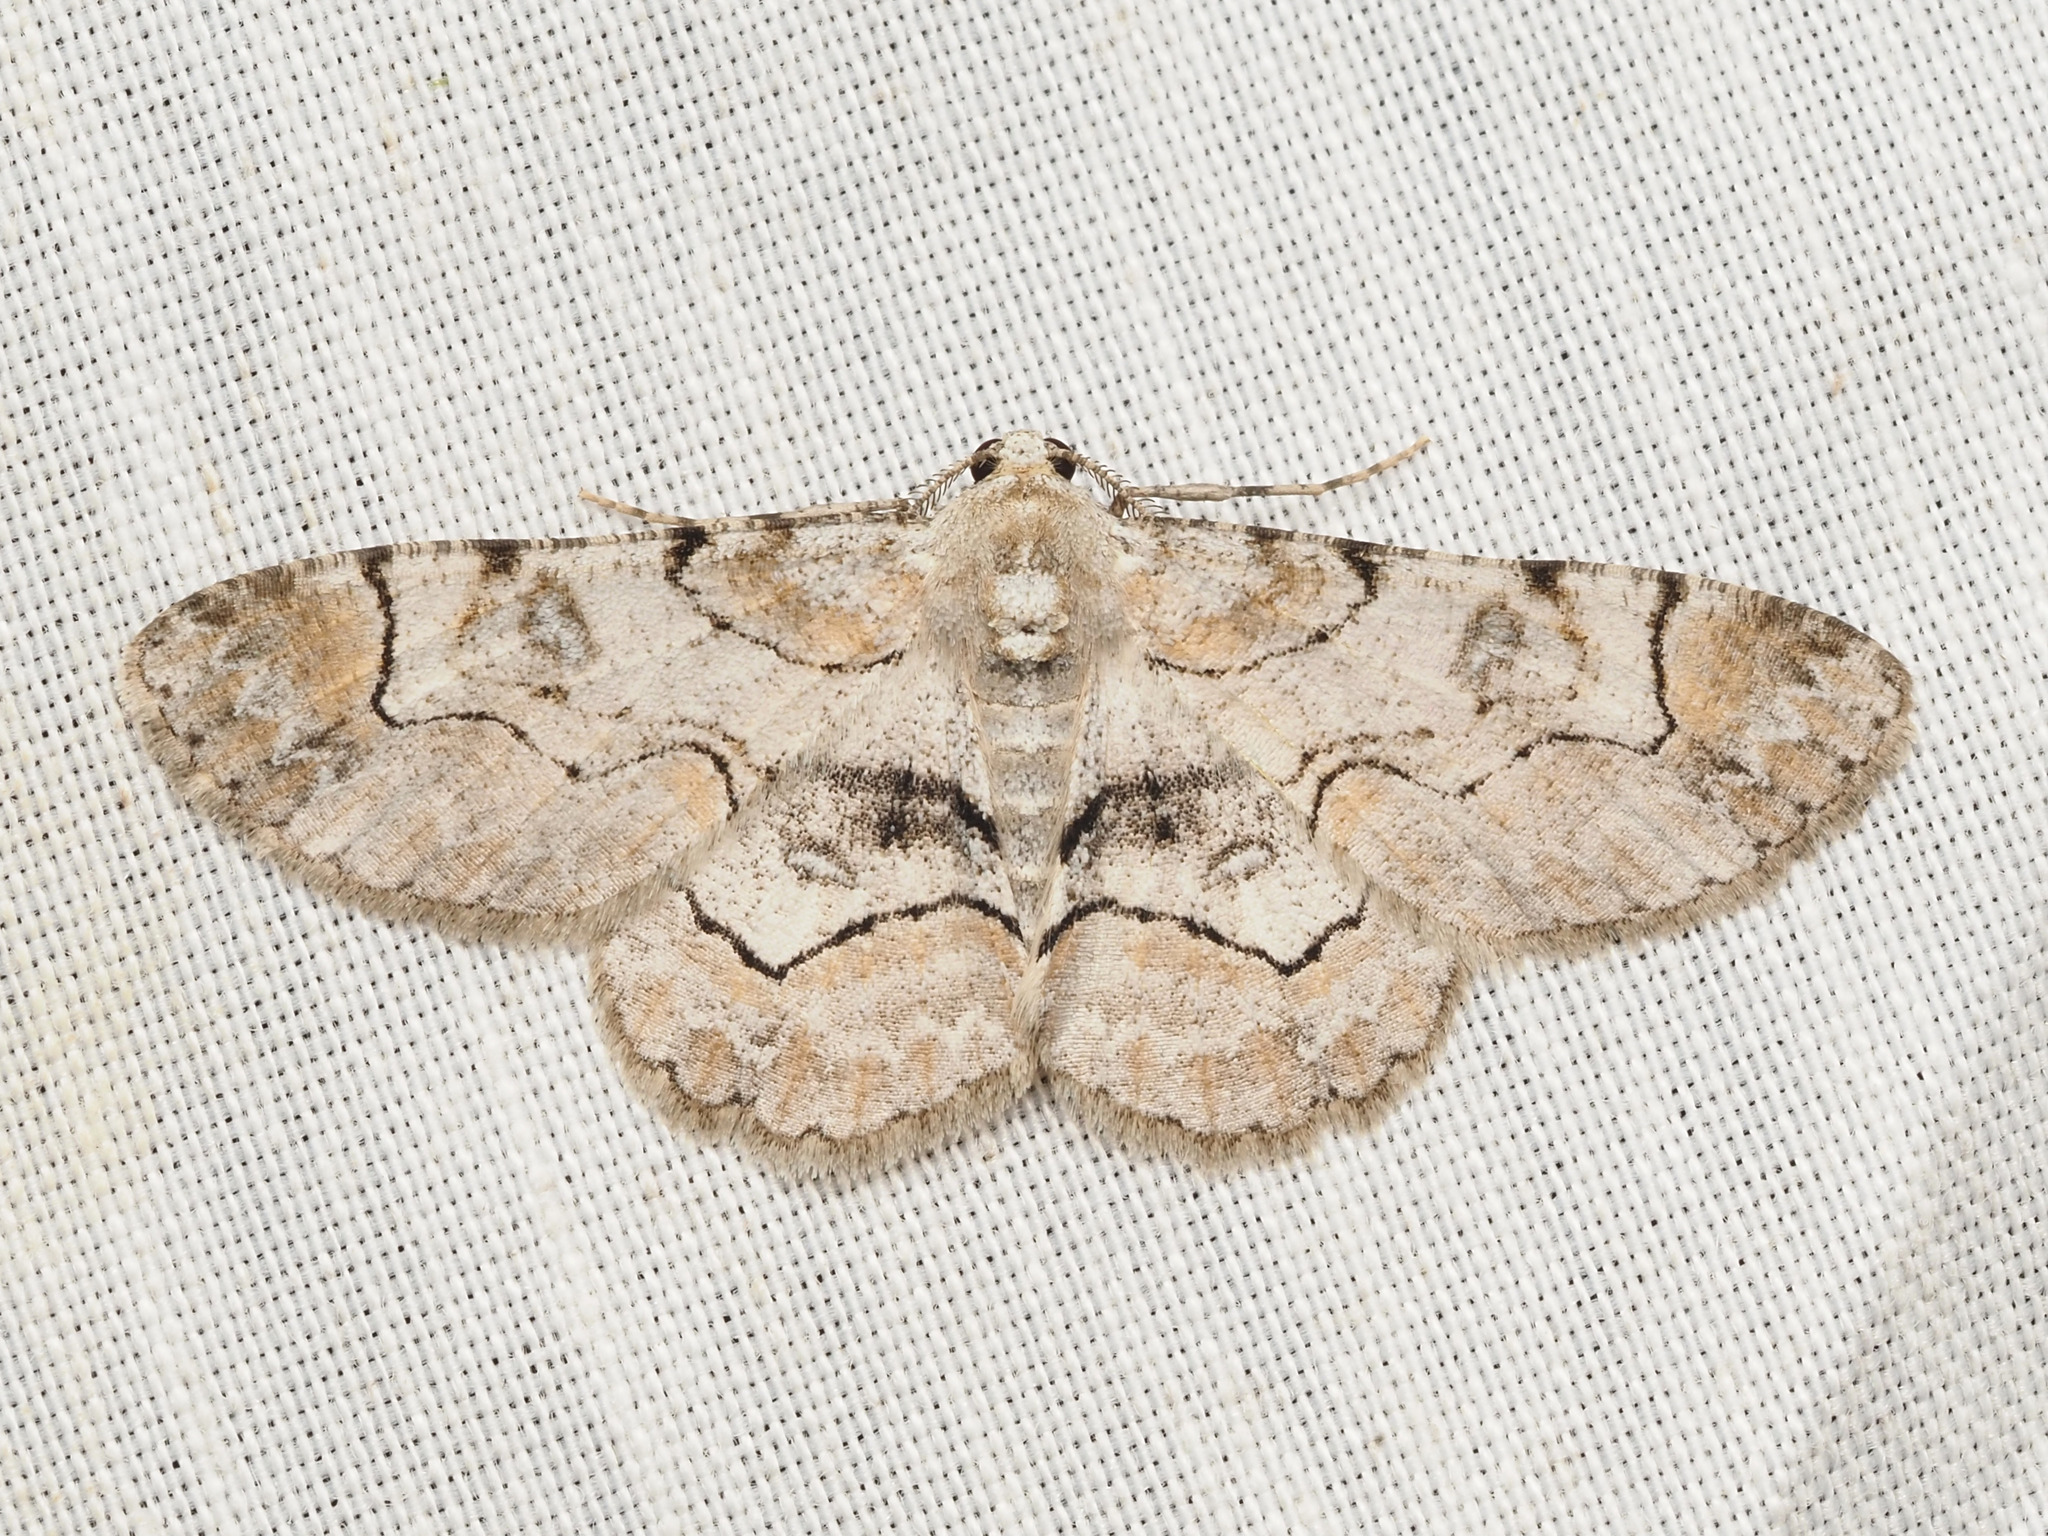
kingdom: Animalia
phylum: Arthropoda
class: Insecta
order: Lepidoptera
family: Geometridae
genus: Iridopsis
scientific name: Iridopsis larvaria
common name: Bent-line gray
